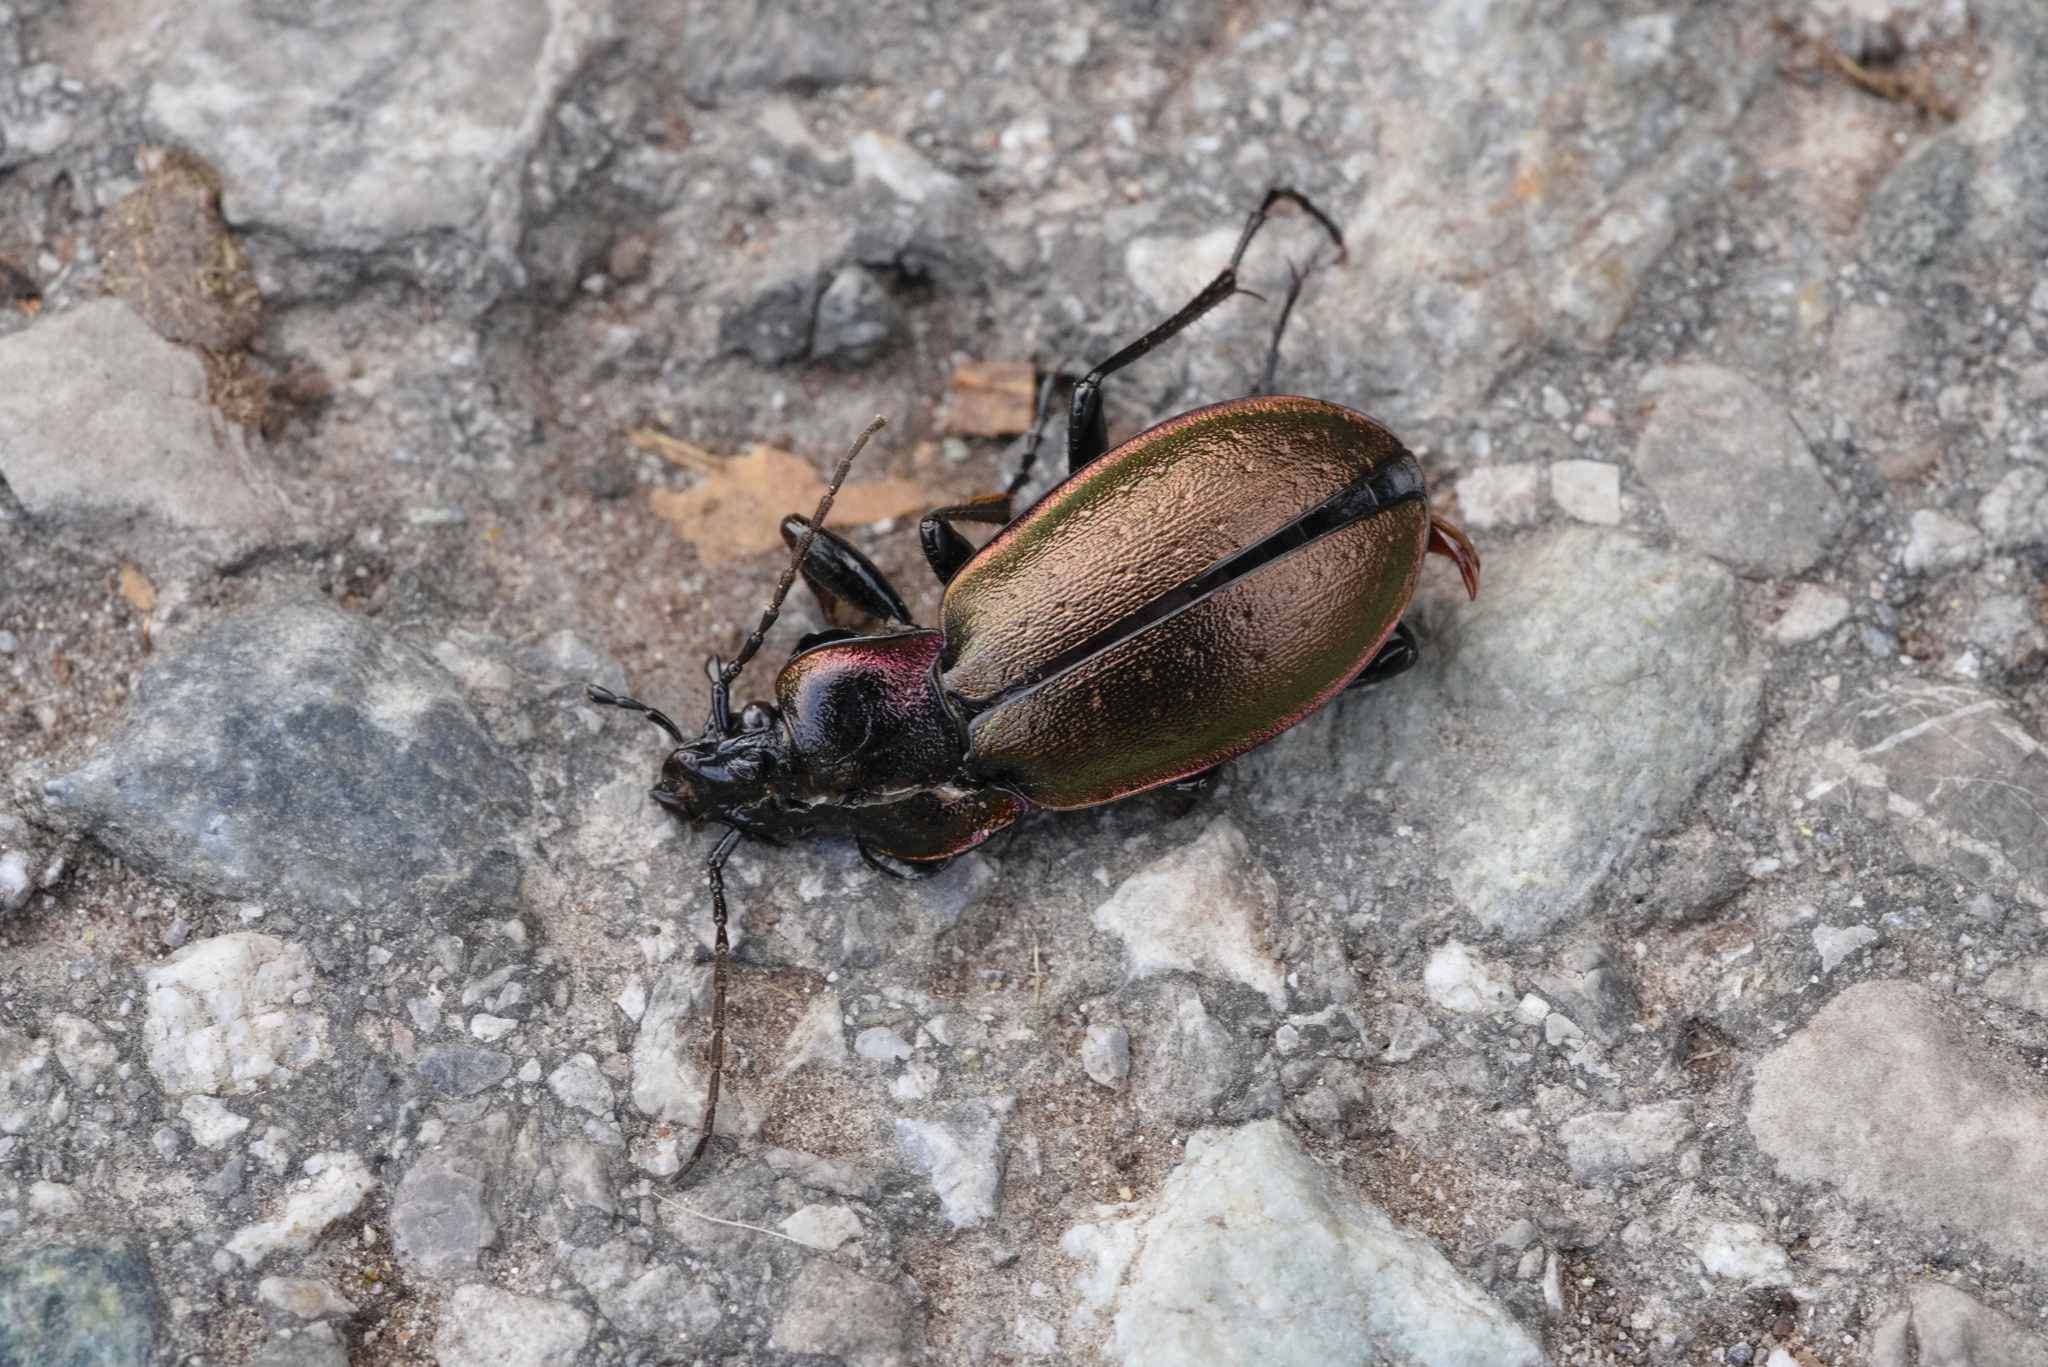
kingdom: Animalia
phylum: Arthropoda
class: Insecta
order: Coleoptera
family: Carabidae
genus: Carabus
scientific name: Carabus nemoralis
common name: European ground beetle
